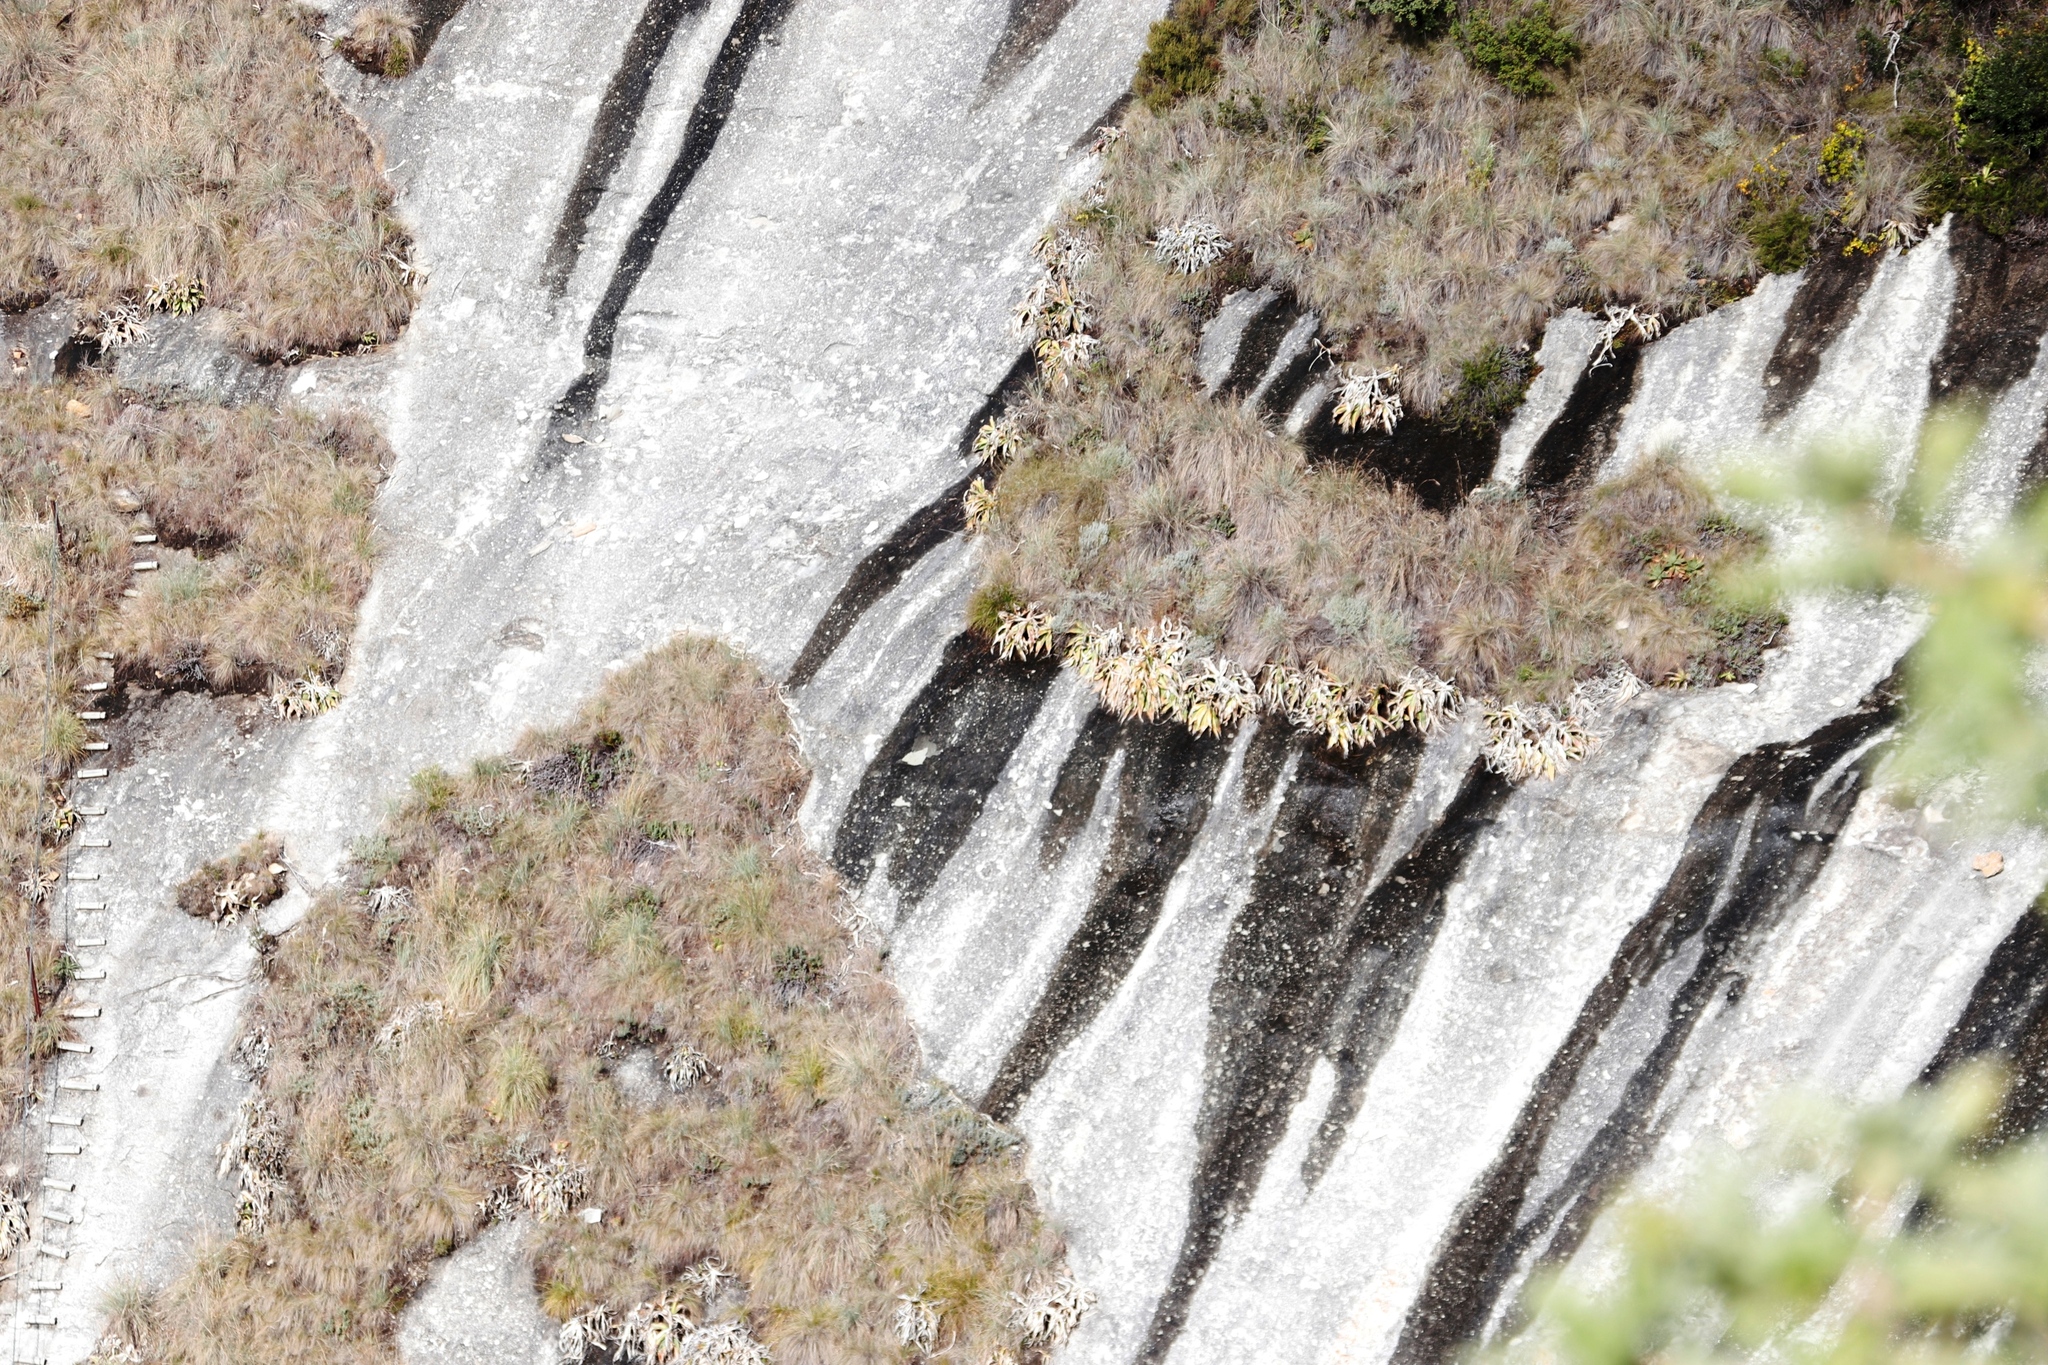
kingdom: Plantae
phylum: Tracheophyta
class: Liliopsida
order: Asparagales
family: Asparagaceae
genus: Merwilla
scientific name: Merwilla plumbea
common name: Blue-squill
